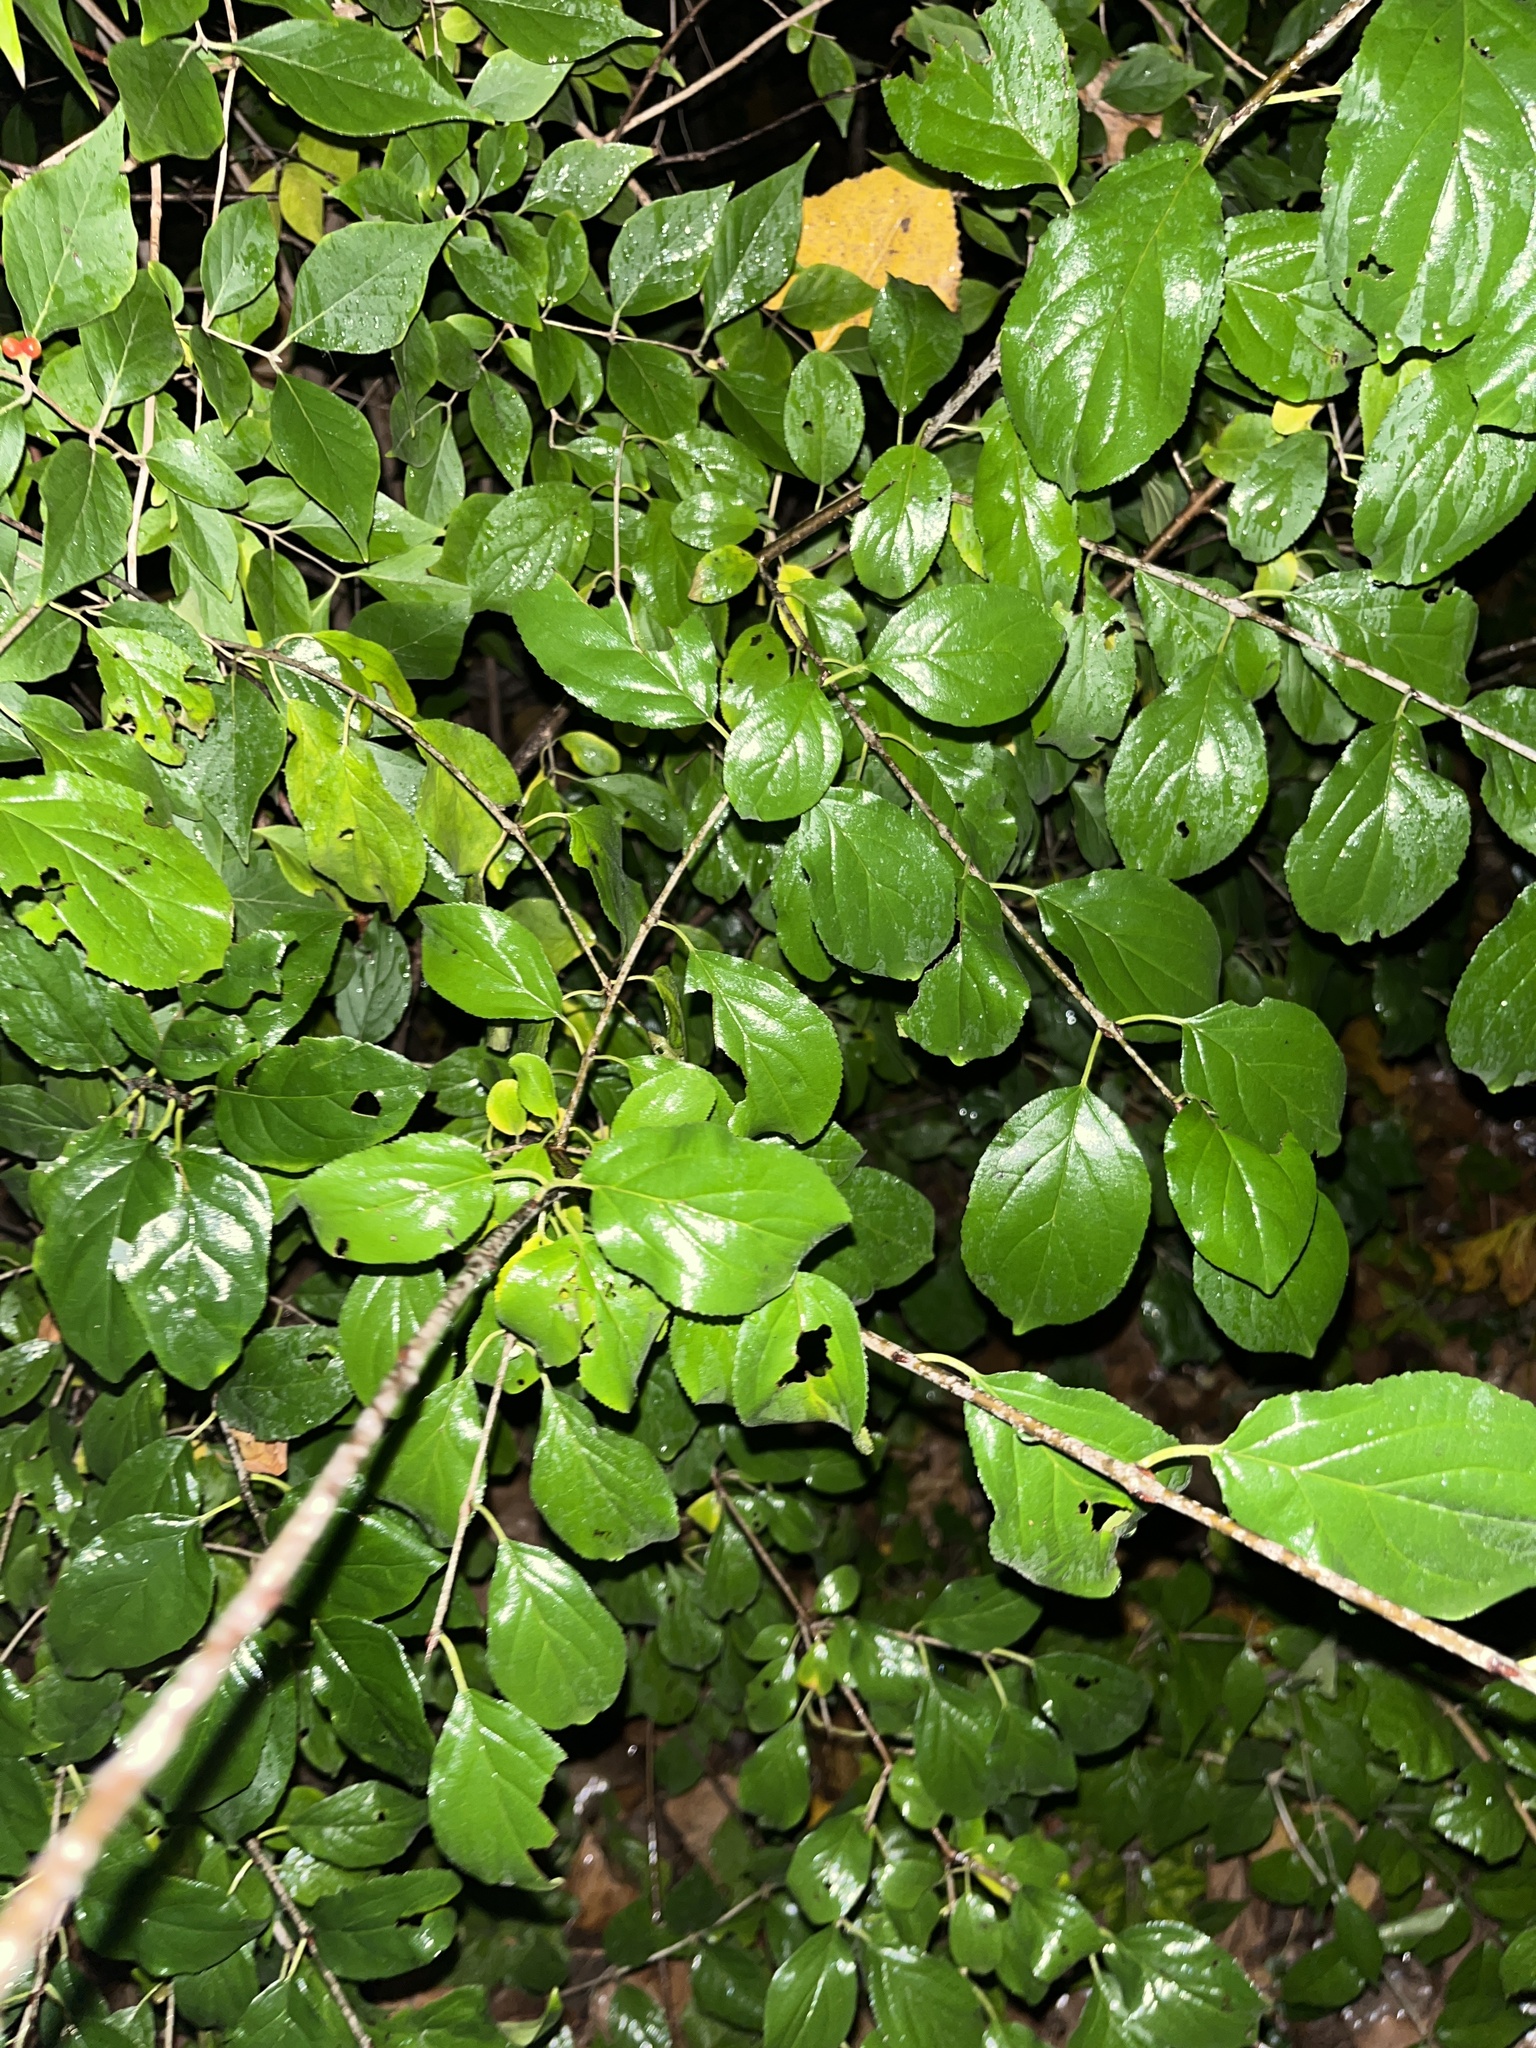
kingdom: Plantae
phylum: Tracheophyta
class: Magnoliopsida
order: Rosales
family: Rhamnaceae
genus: Rhamnus
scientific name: Rhamnus cathartica
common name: Common buckthorn
